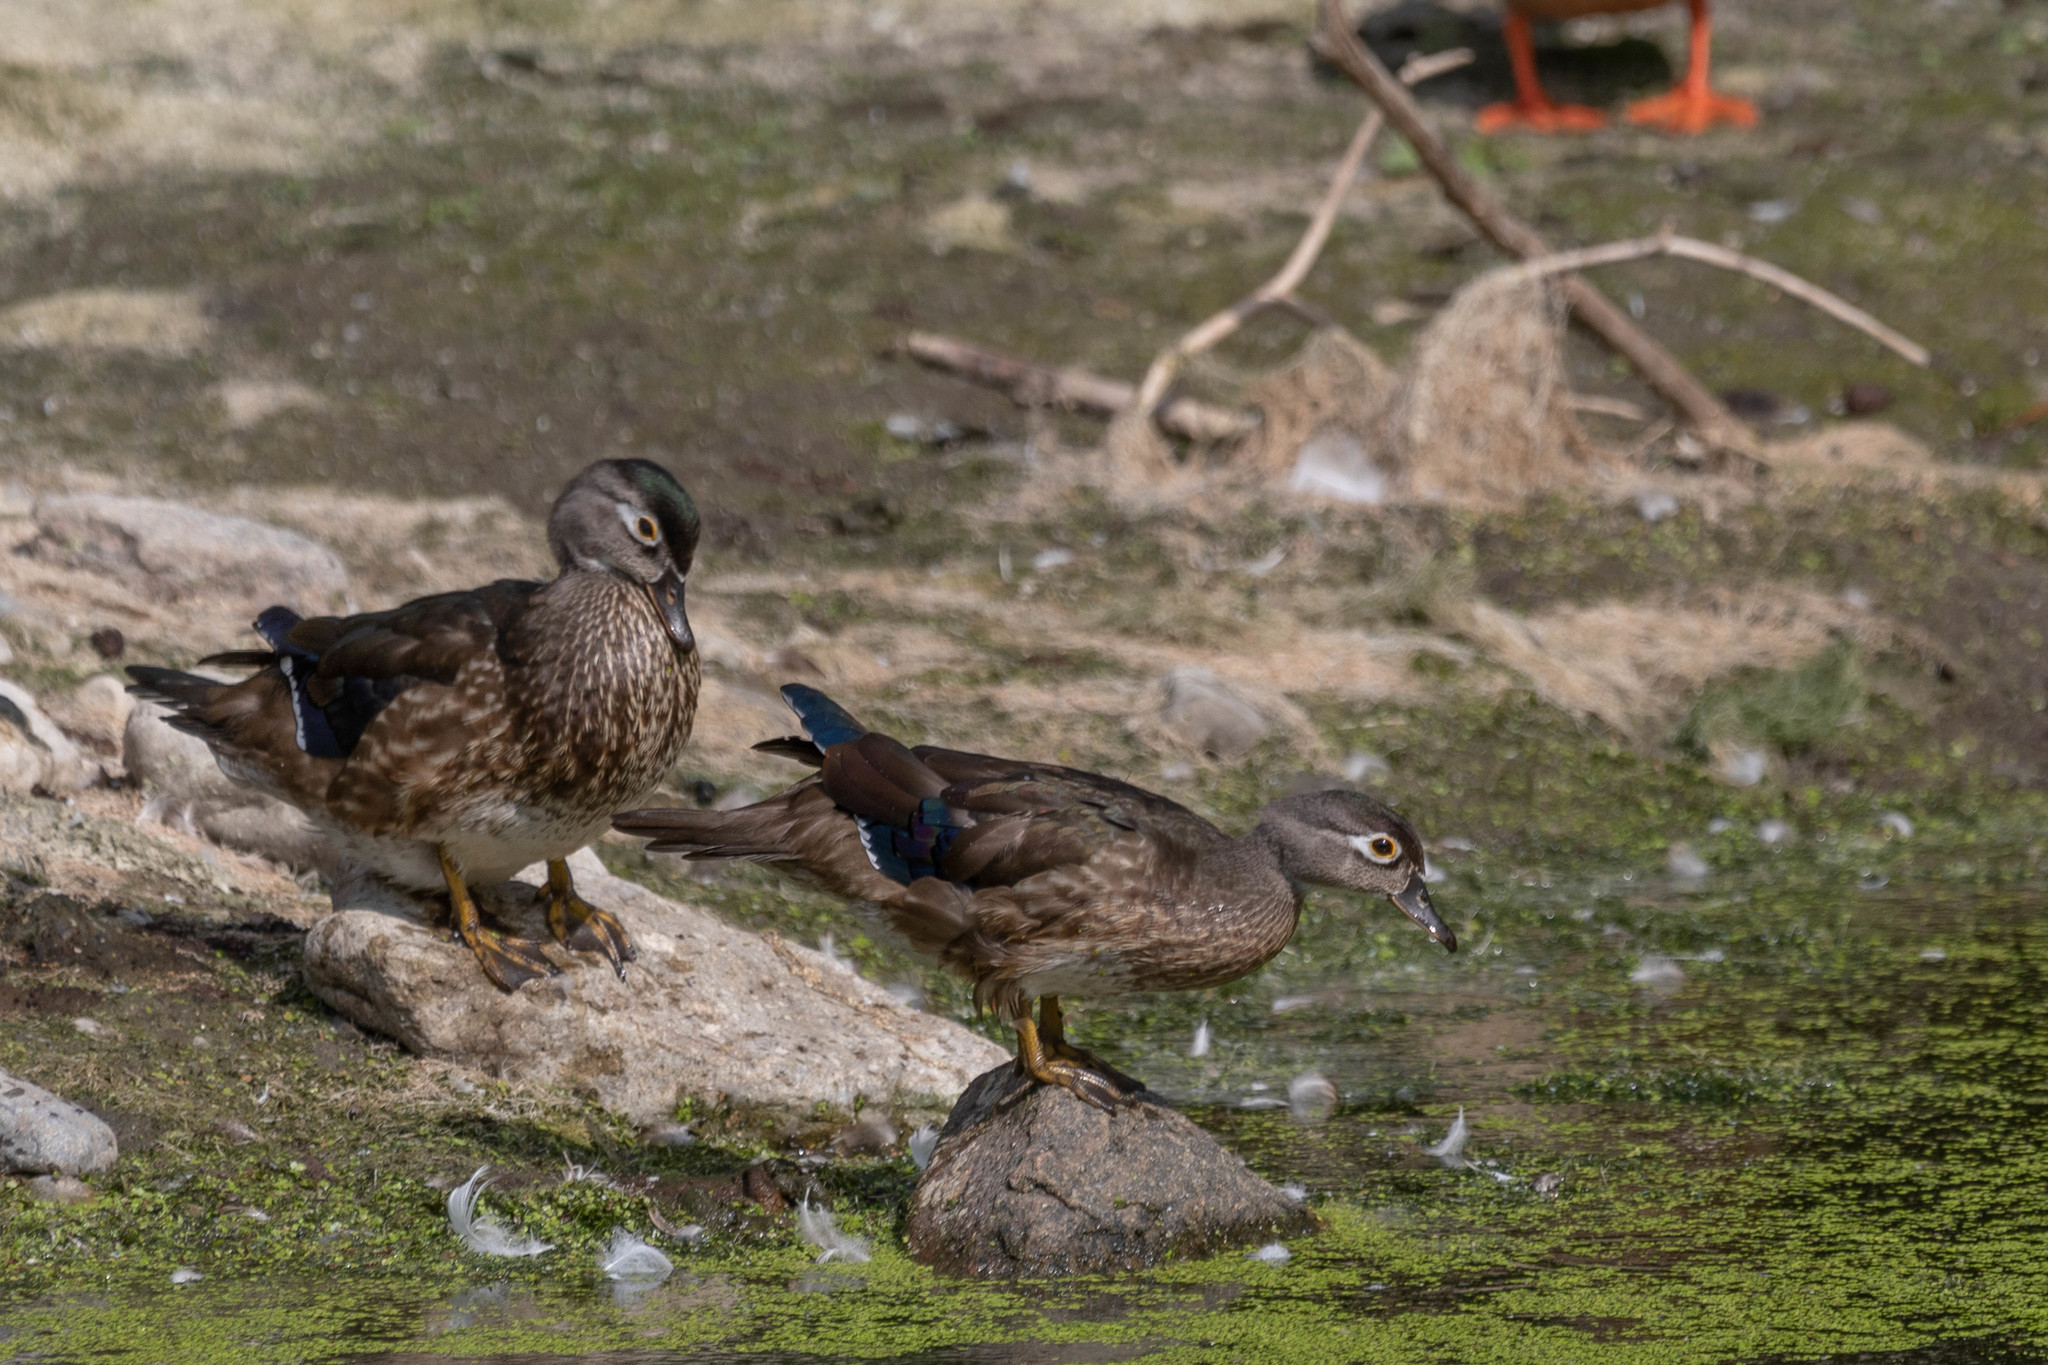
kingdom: Animalia
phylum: Chordata
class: Aves
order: Anseriformes
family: Anatidae
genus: Aix
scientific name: Aix sponsa
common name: Wood duck
